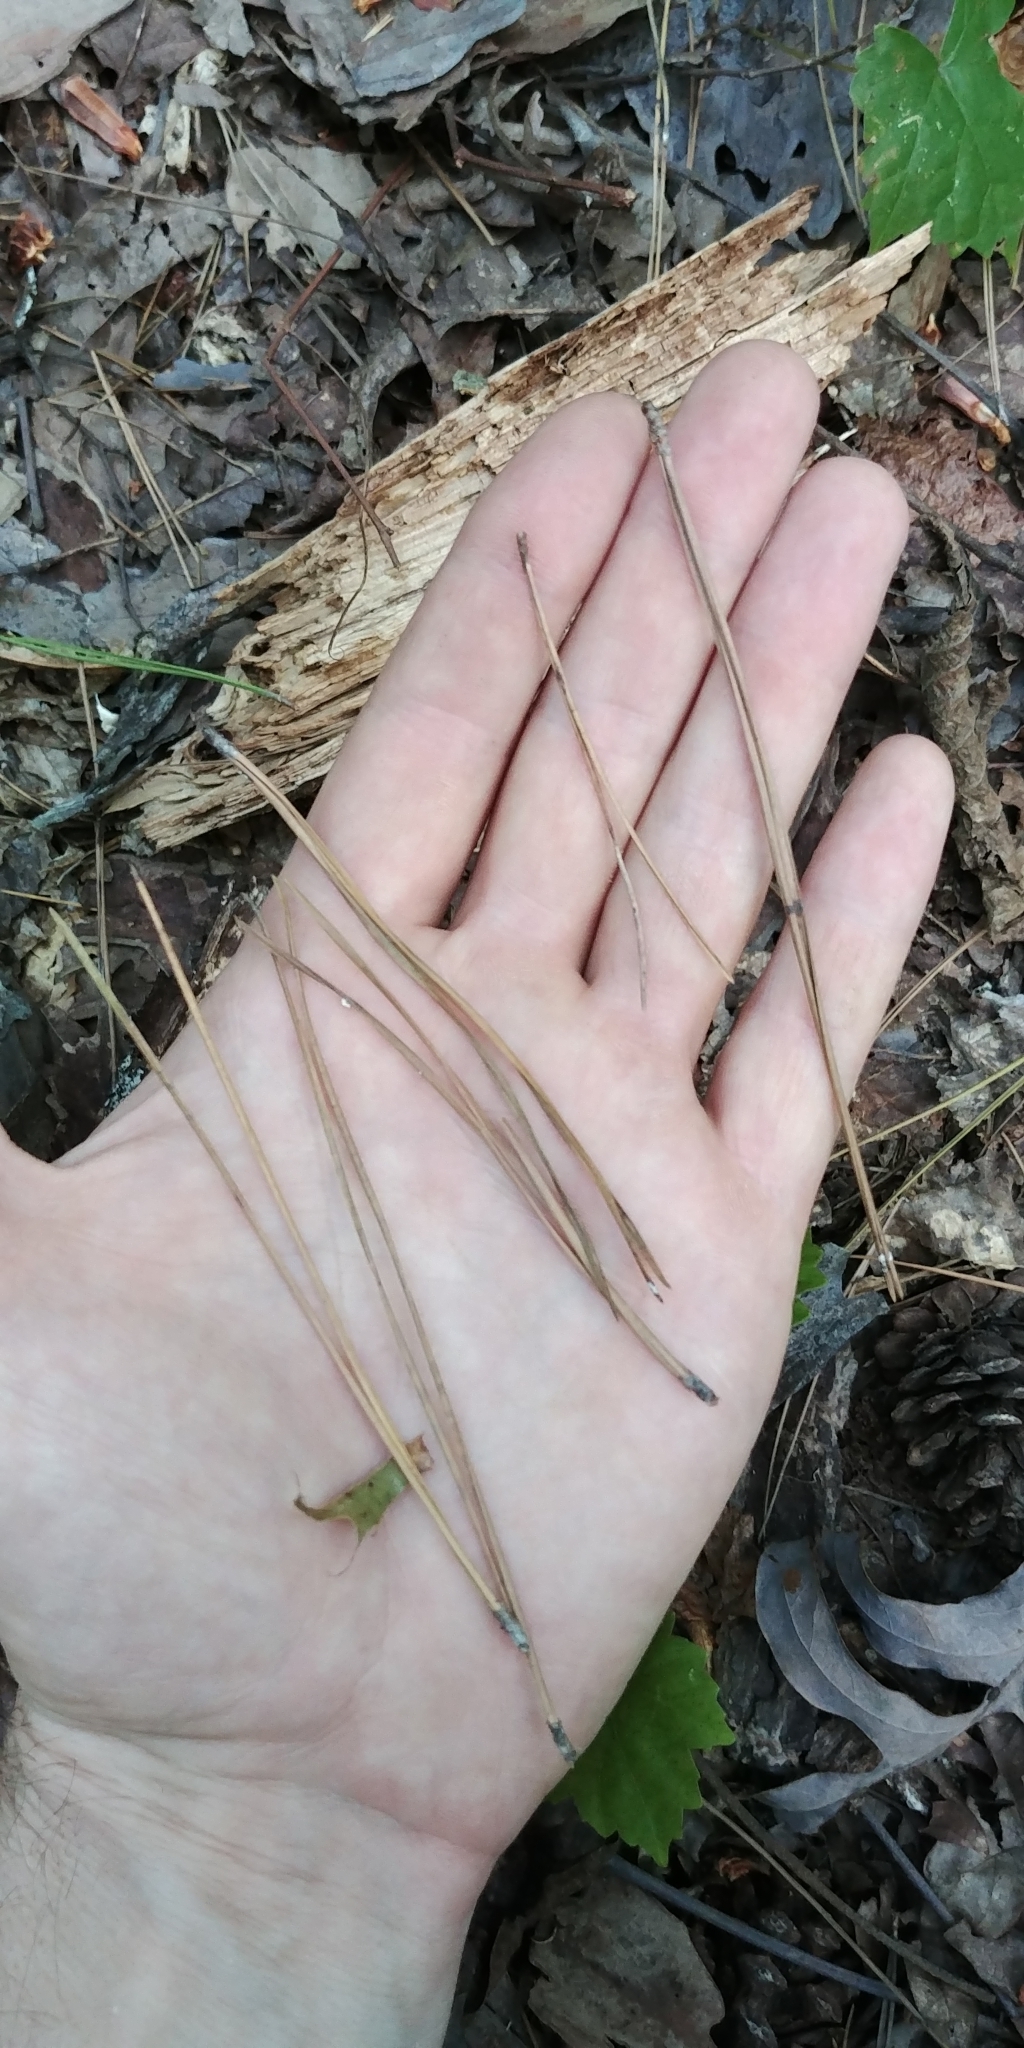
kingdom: Plantae
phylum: Tracheophyta
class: Pinopsida
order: Pinales
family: Pinaceae
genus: Pinus
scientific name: Pinus echinata
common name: Shortleaf pine
